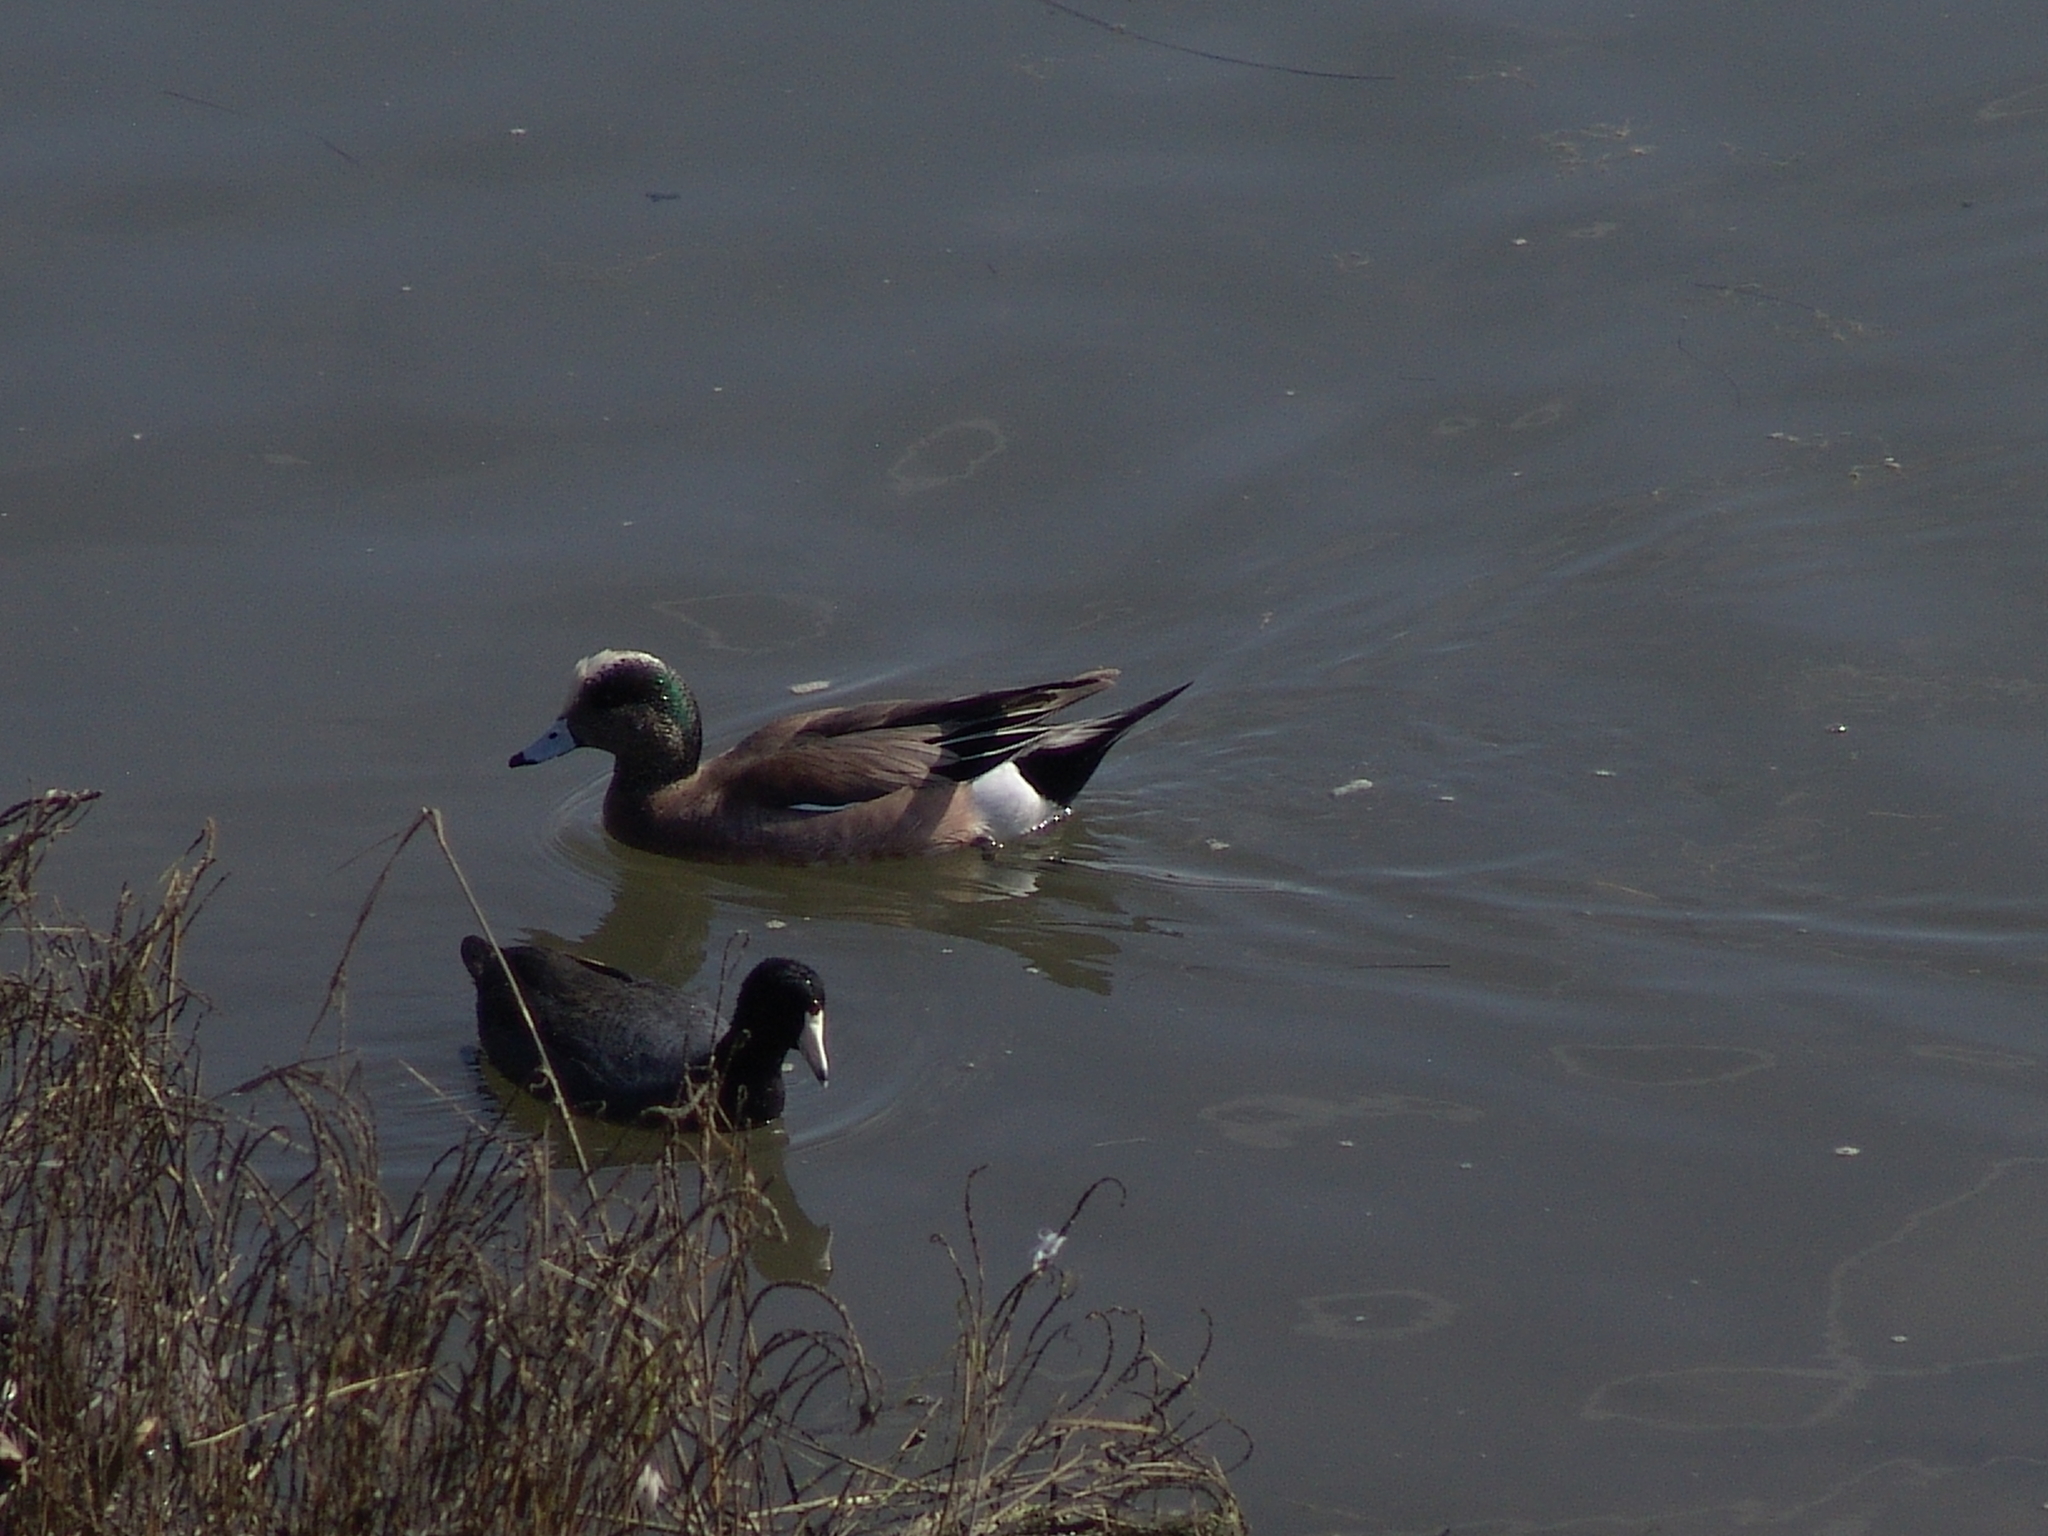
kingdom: Animalia
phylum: Chordata
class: Aves
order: Gruiformes
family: Rallidae
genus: Fulica
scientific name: Fulica americana
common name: American coot
